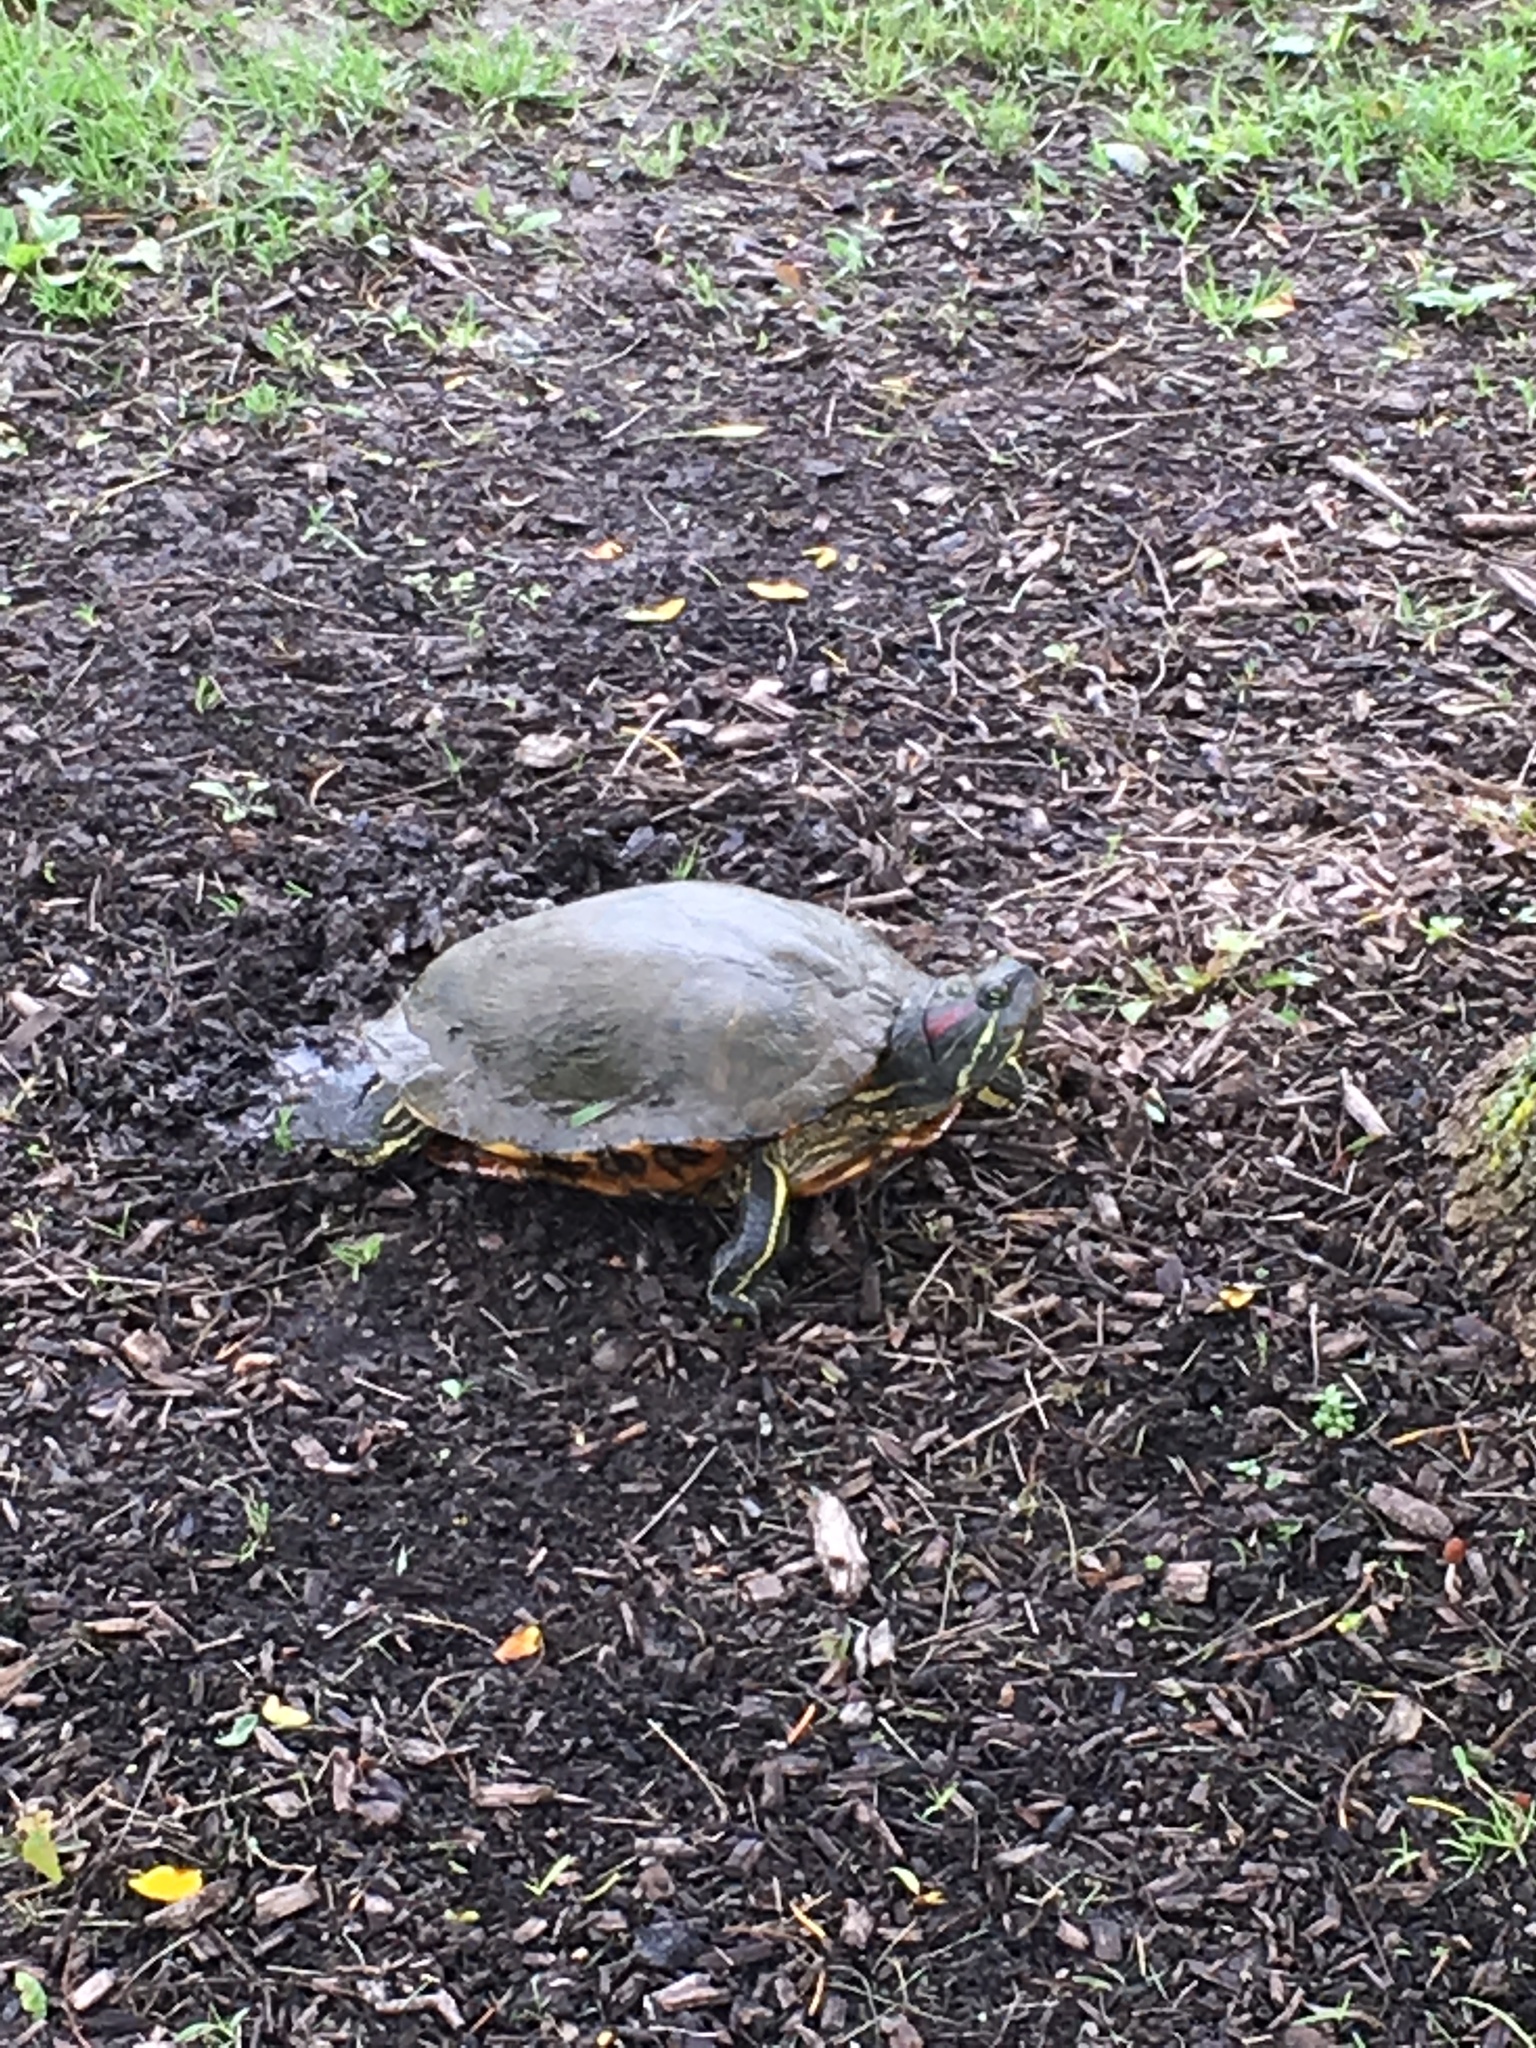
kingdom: Animalia
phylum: Chordata
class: Testudines
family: Emydidae
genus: Trachemys
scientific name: Trachemys scripta
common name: Slider
